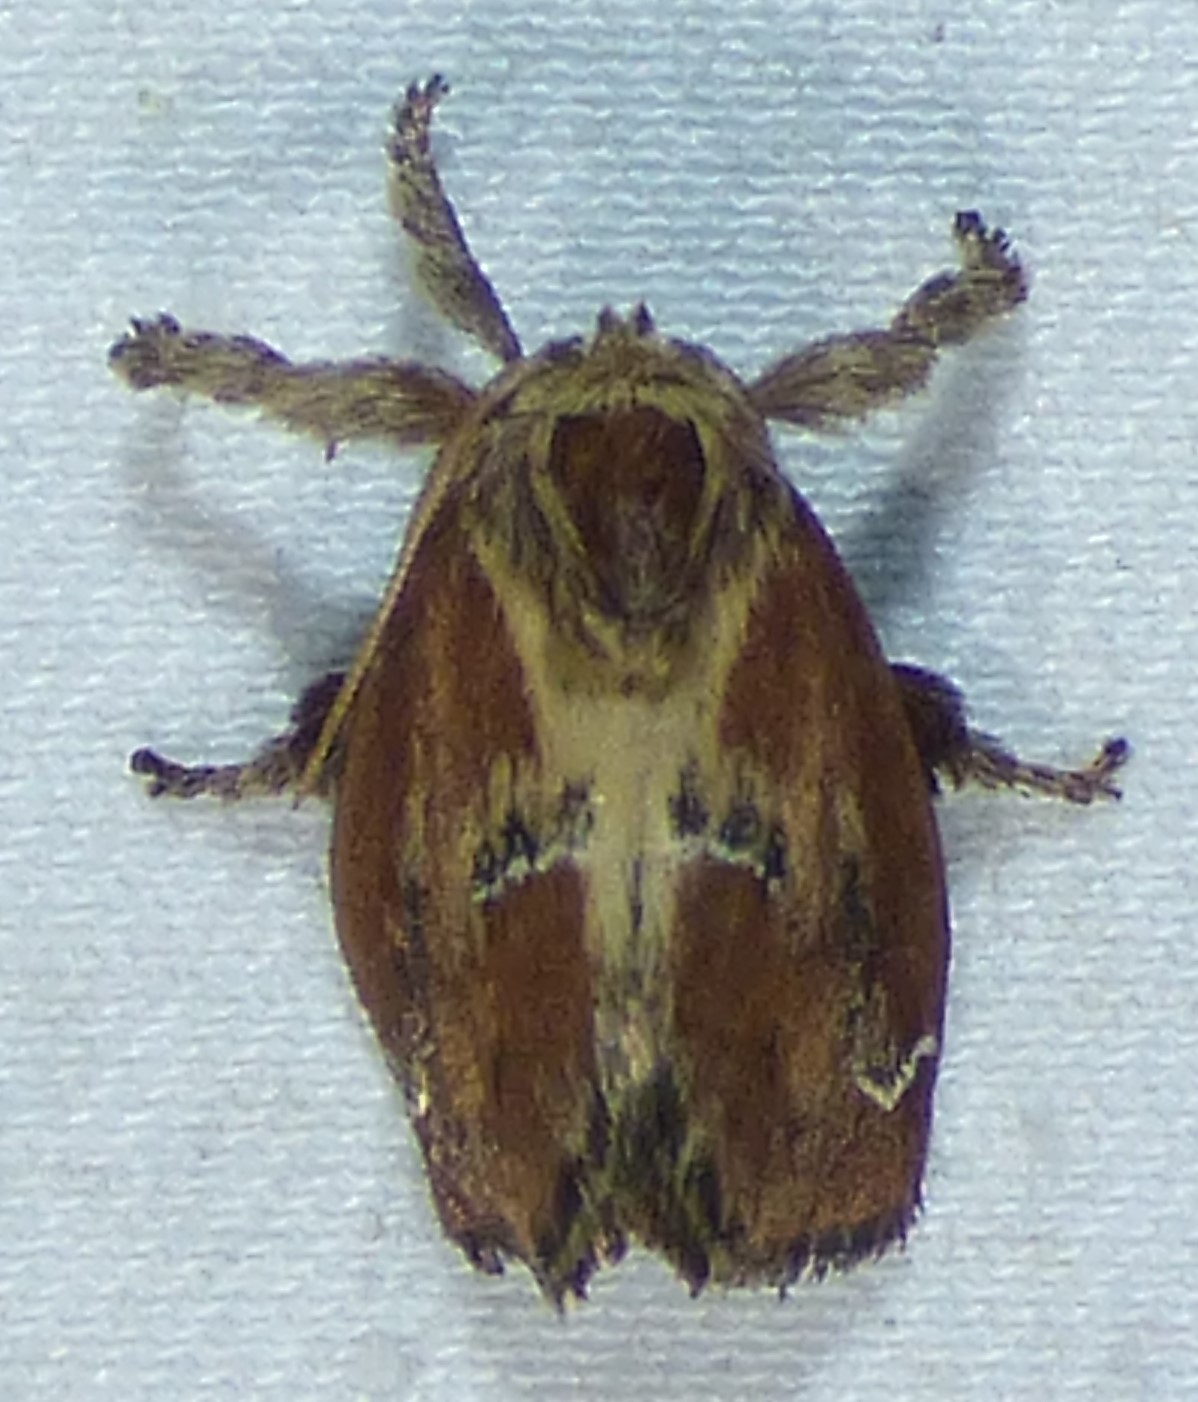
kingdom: Animalia
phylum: Arthropoda
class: Insecta
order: Lepidoptera
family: Limacodidae
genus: Adoneta
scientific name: Adoneta spinuloides
